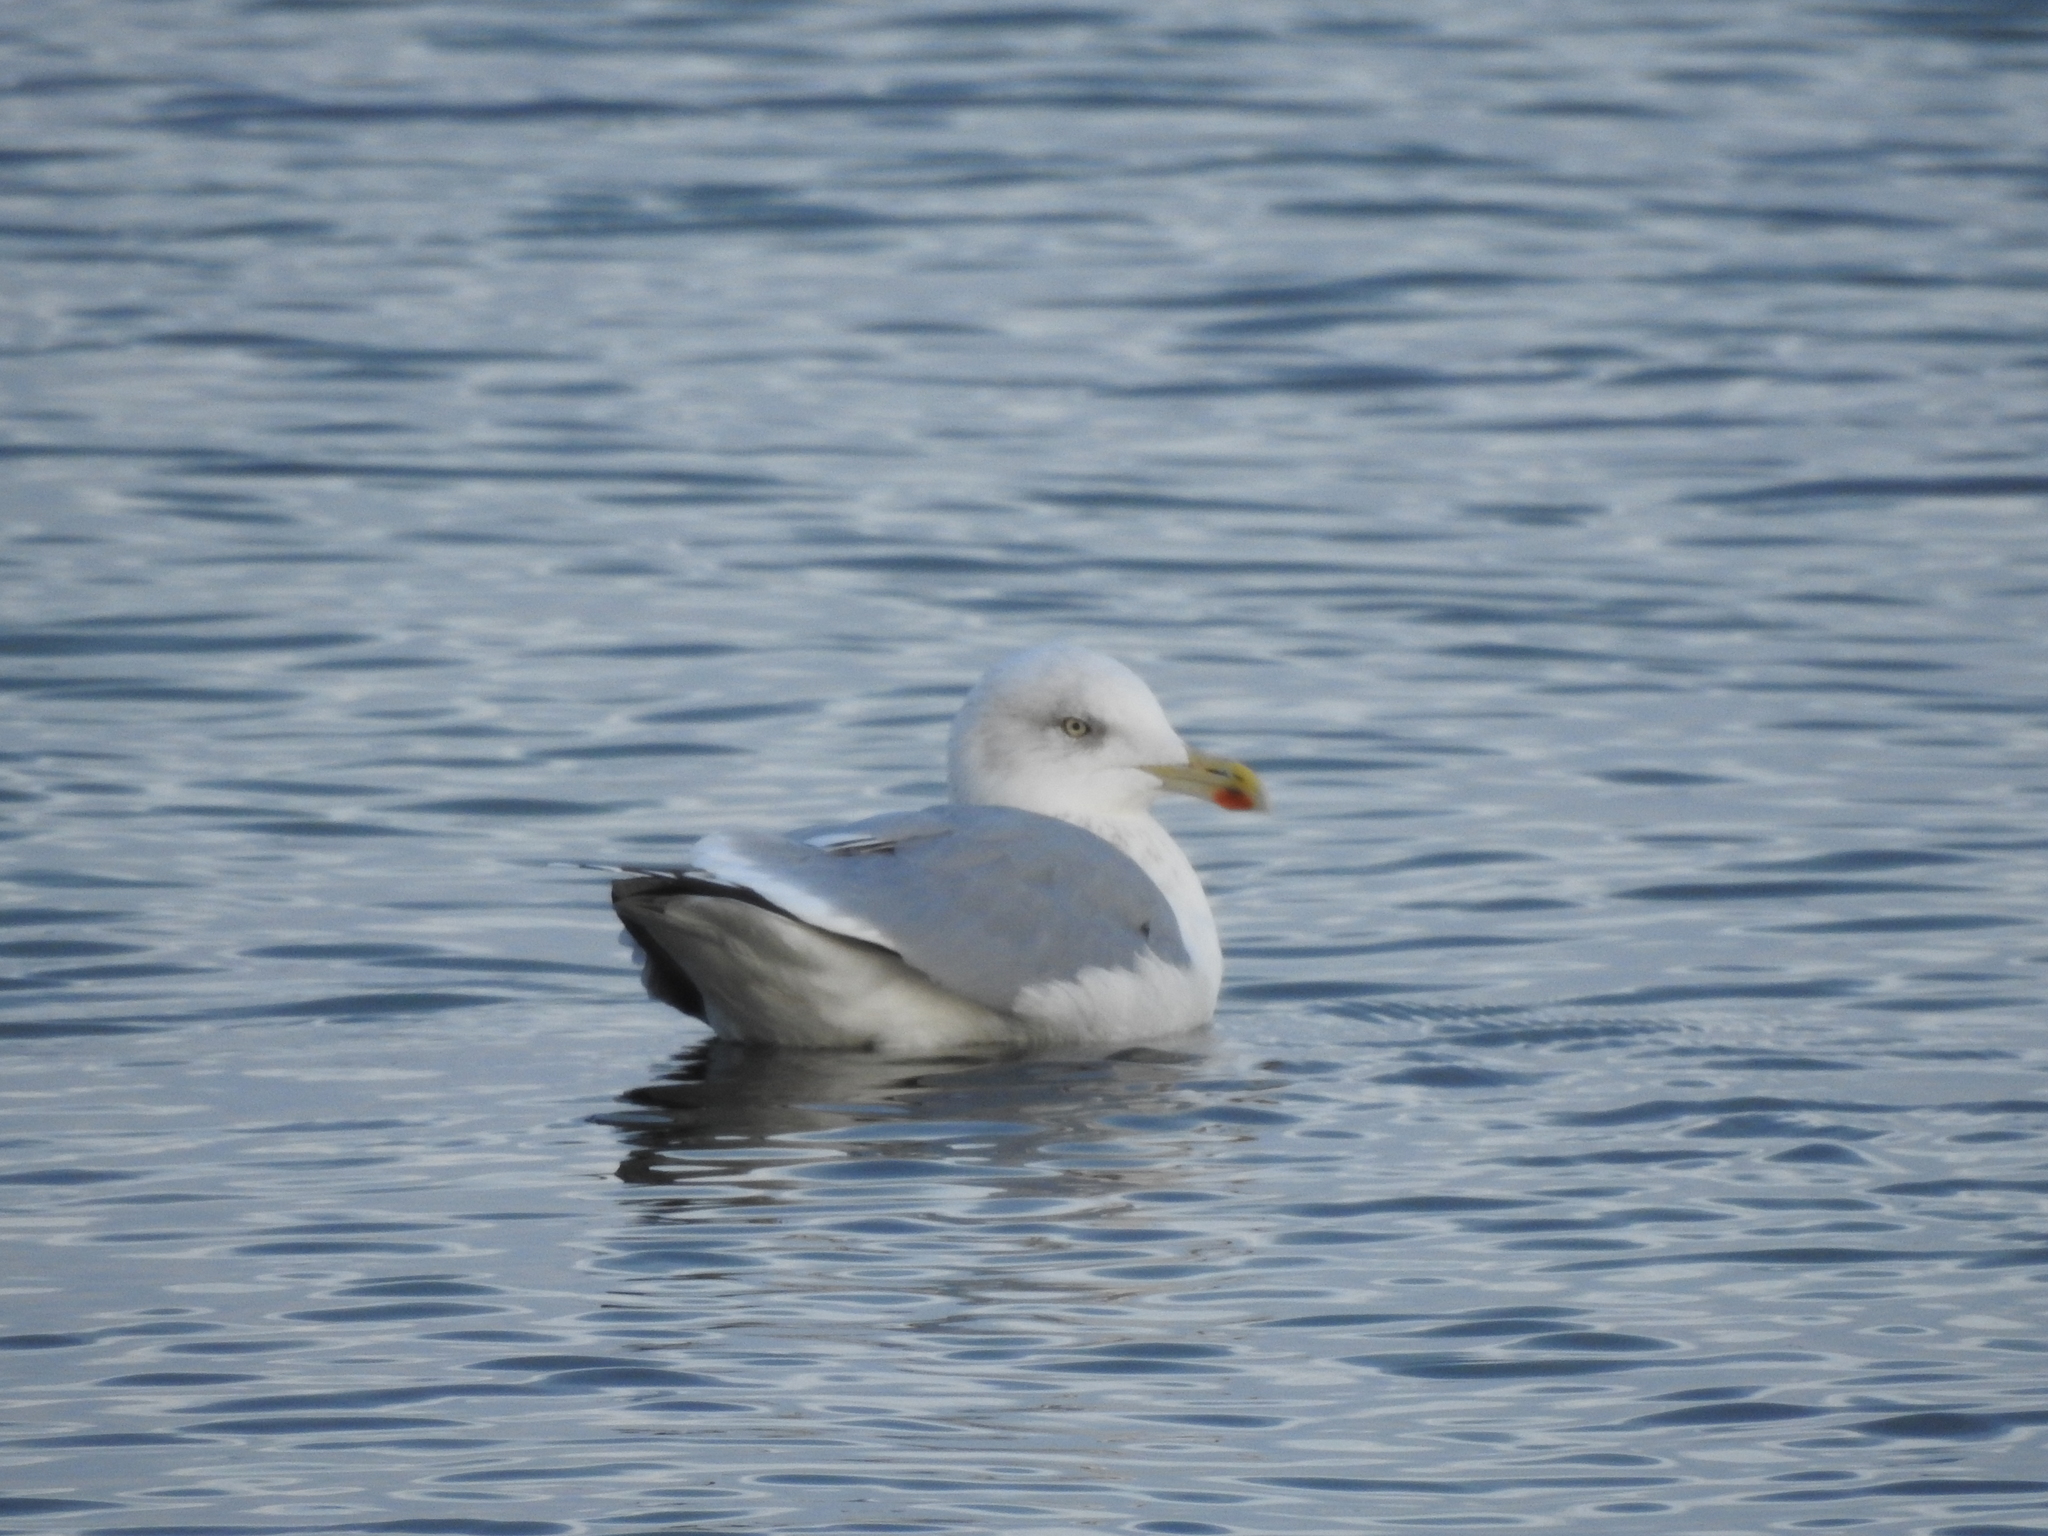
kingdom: Animalia
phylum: Chordata
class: Aves
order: Charadriiformes
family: Laridae
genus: Larus
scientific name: Larus argentatus
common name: Herring gull
